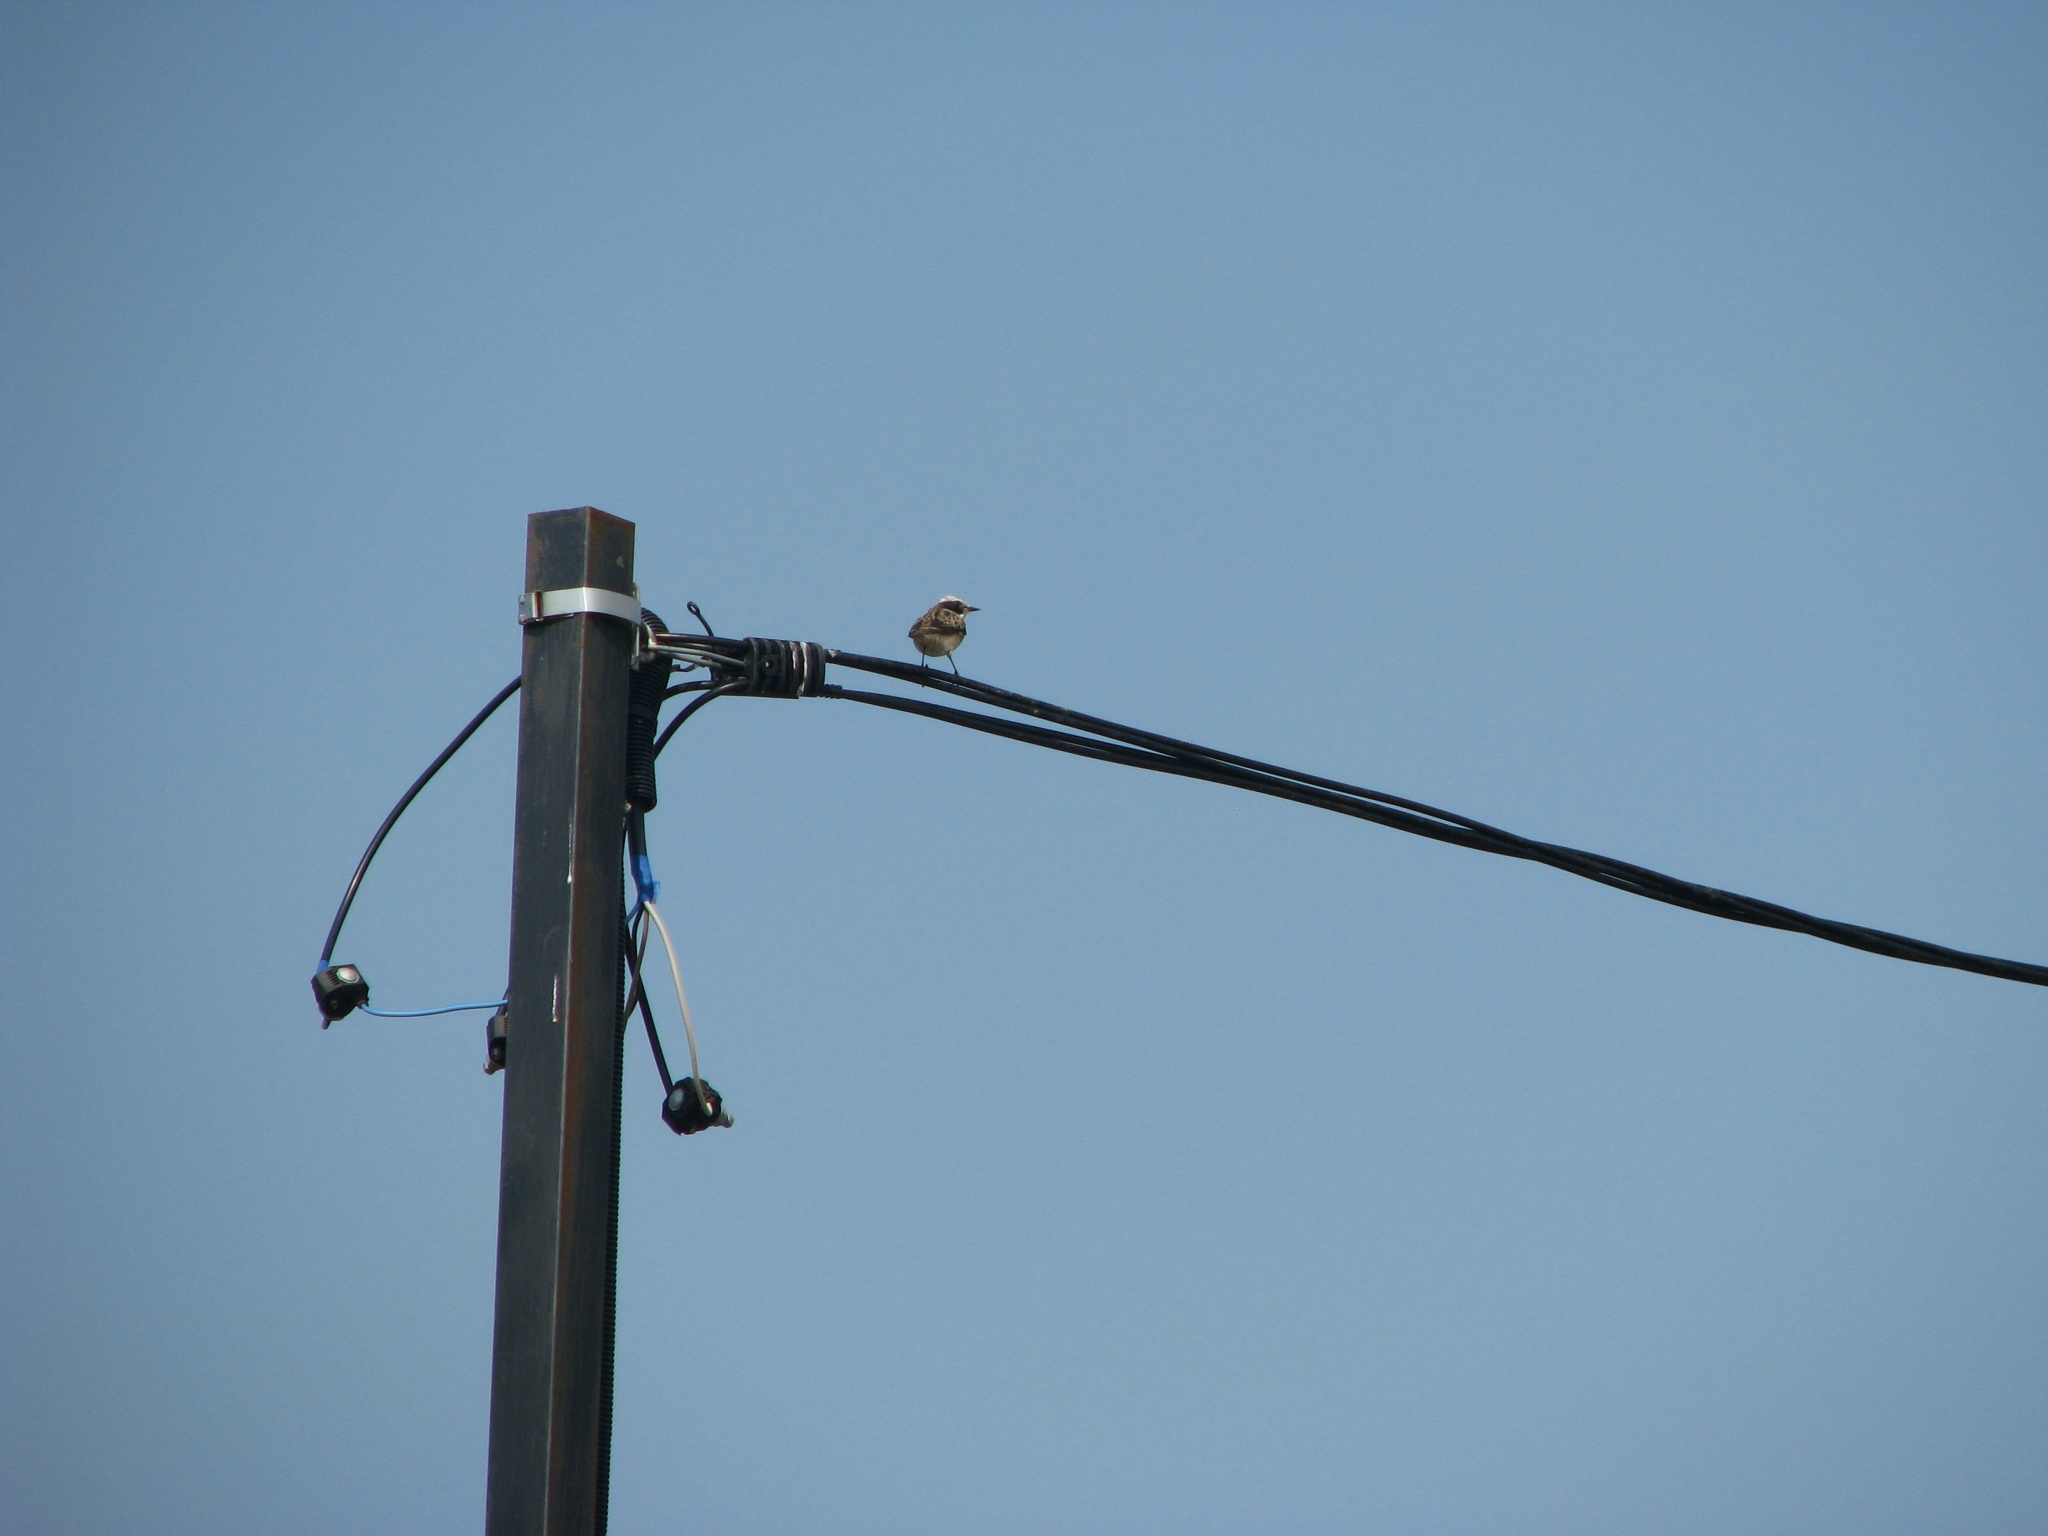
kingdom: Animalia
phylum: Chordata
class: Aves
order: Passeriformes
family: Muscicapidae
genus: Saxicola
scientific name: Saxicola rubetra
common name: Whinchat
